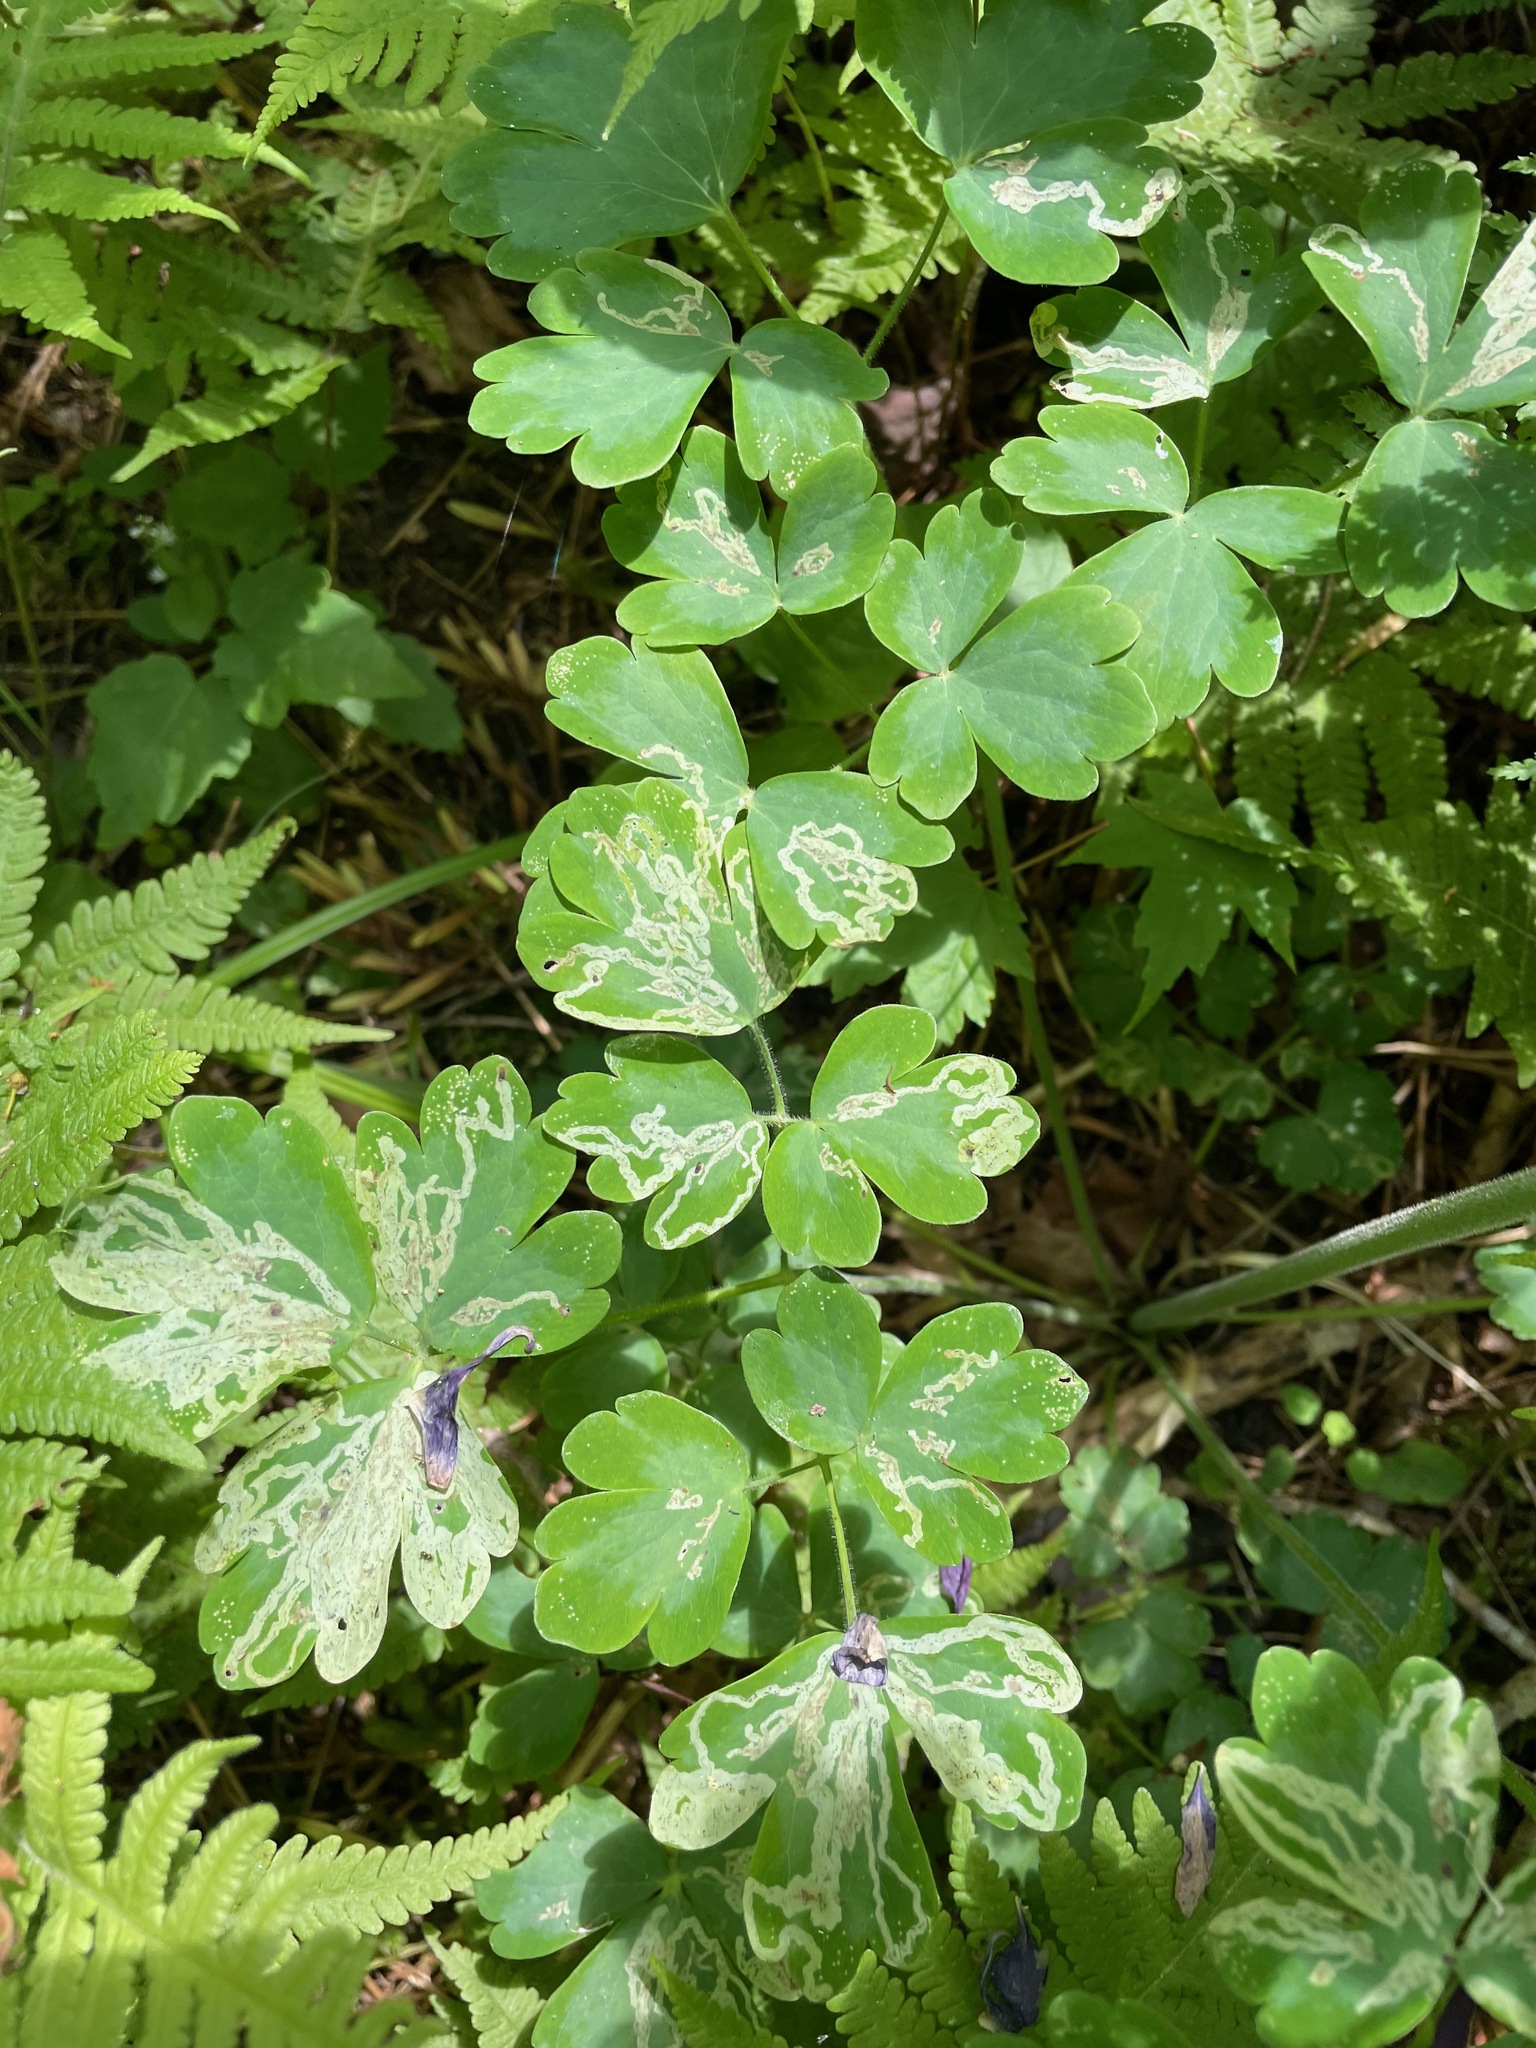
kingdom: Plantae
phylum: Tracheophyta
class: Magnoliopsida
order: Ranunculales
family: Ranunculaceae
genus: Aquilegia
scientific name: Aquilegia vulgaris
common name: Columbine
